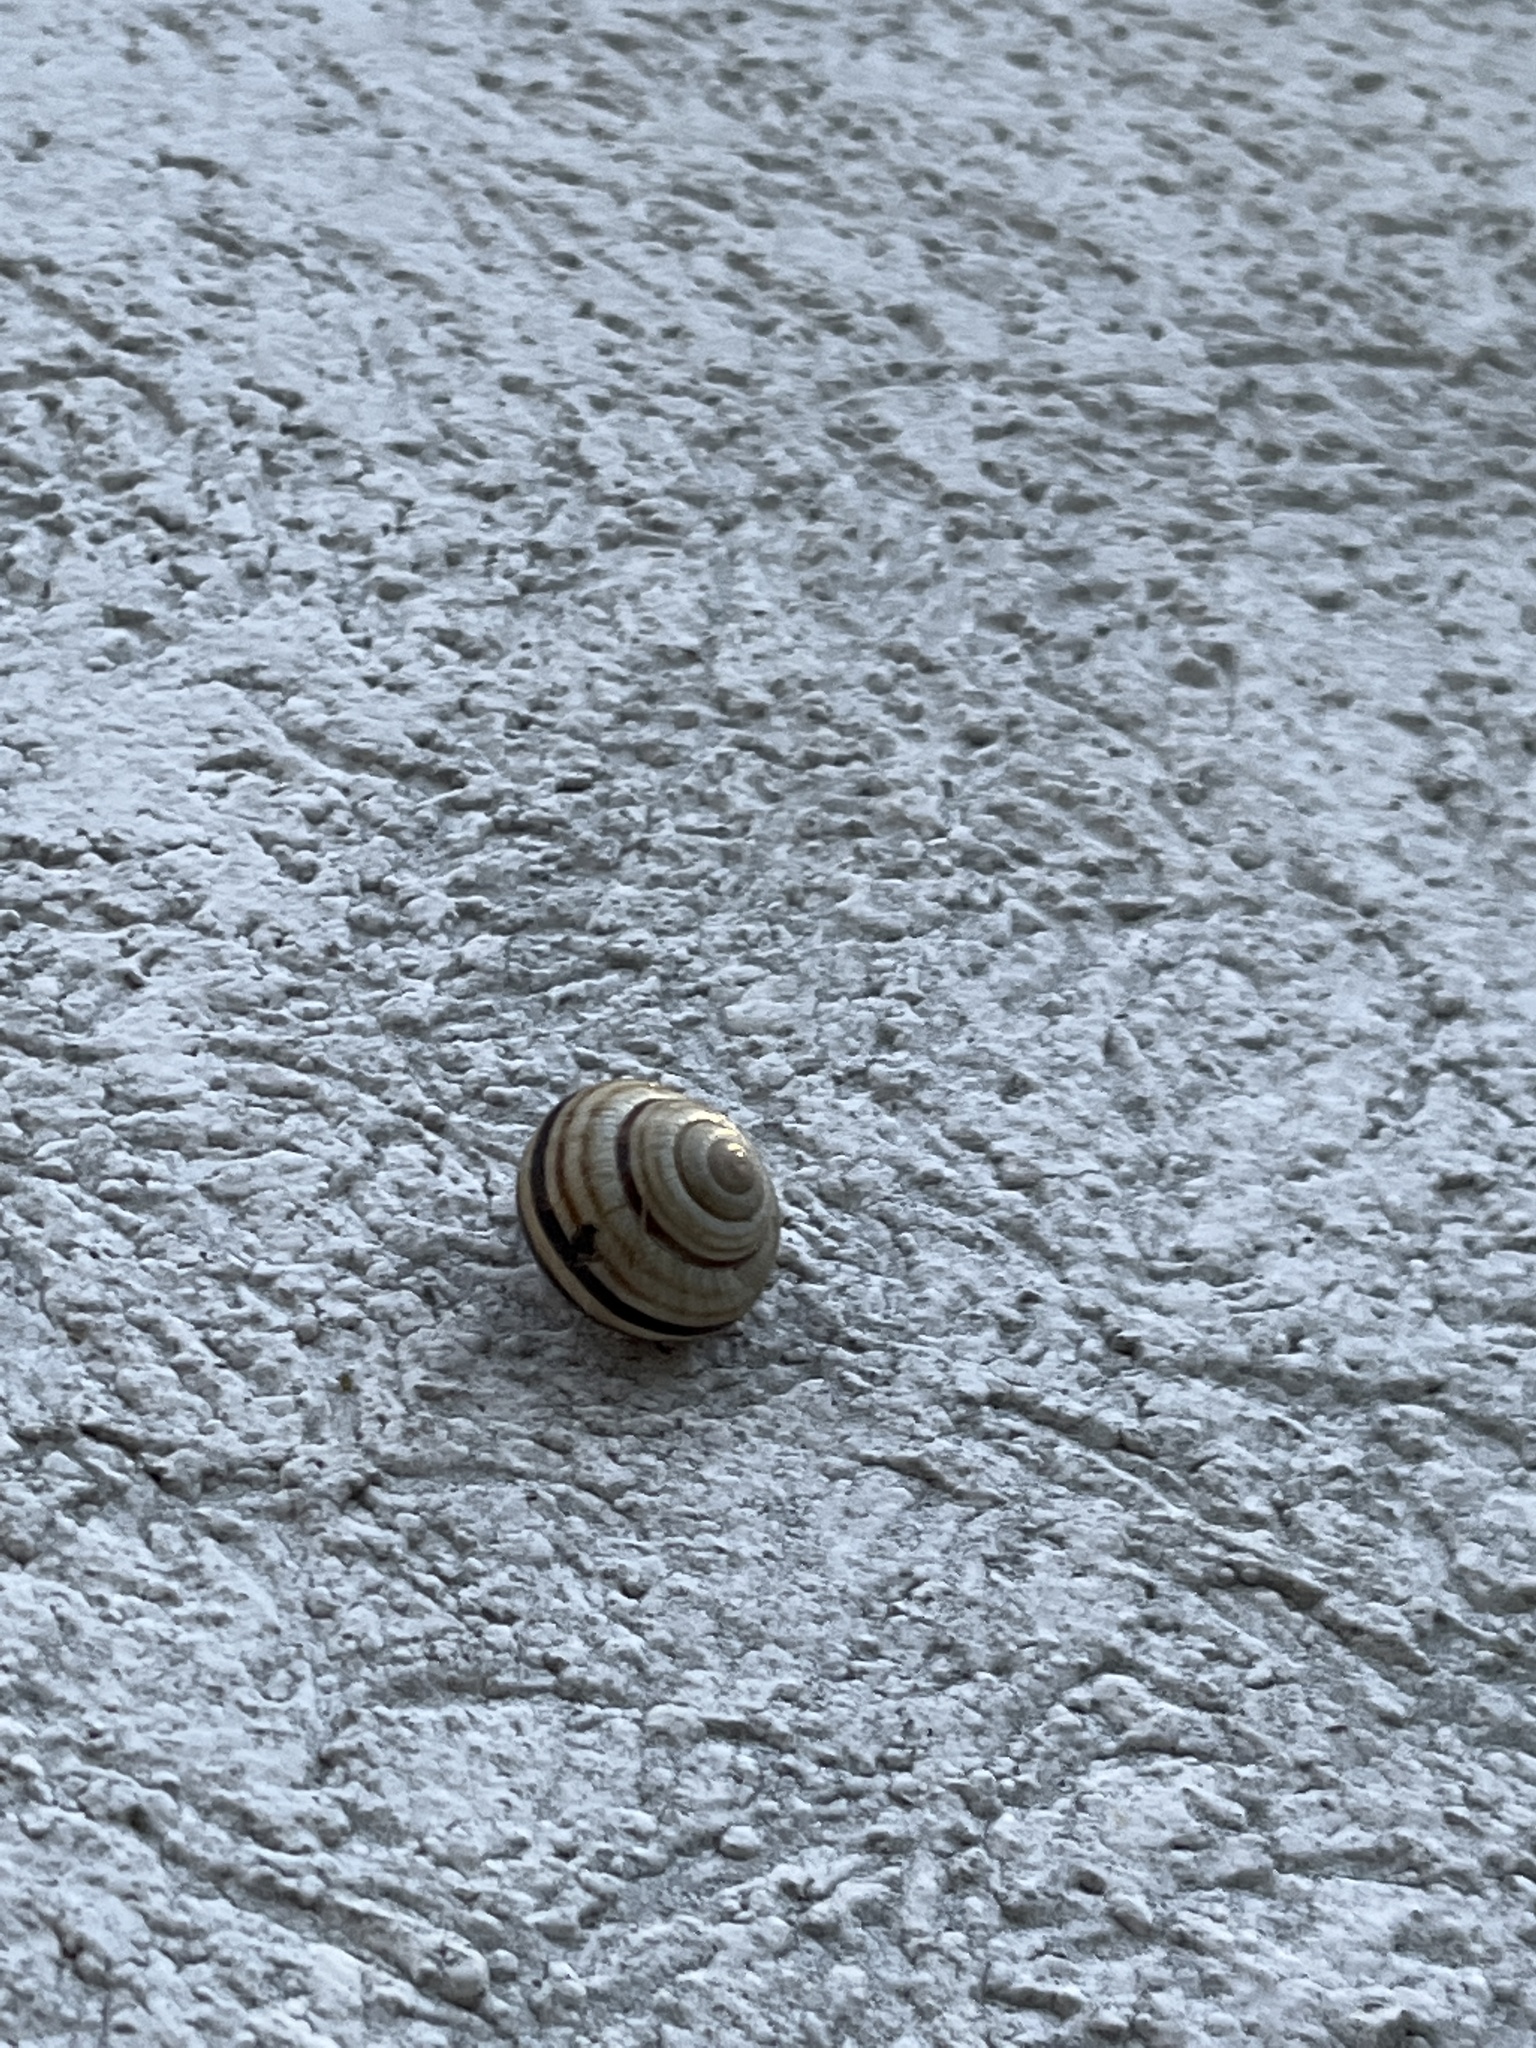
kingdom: Animalia
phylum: Mollusca
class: Gastropoda
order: Stylommatophora
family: Helicidae
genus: Caucasotachea
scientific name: Caucasotachea vindobonensis
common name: European helicid land snail
